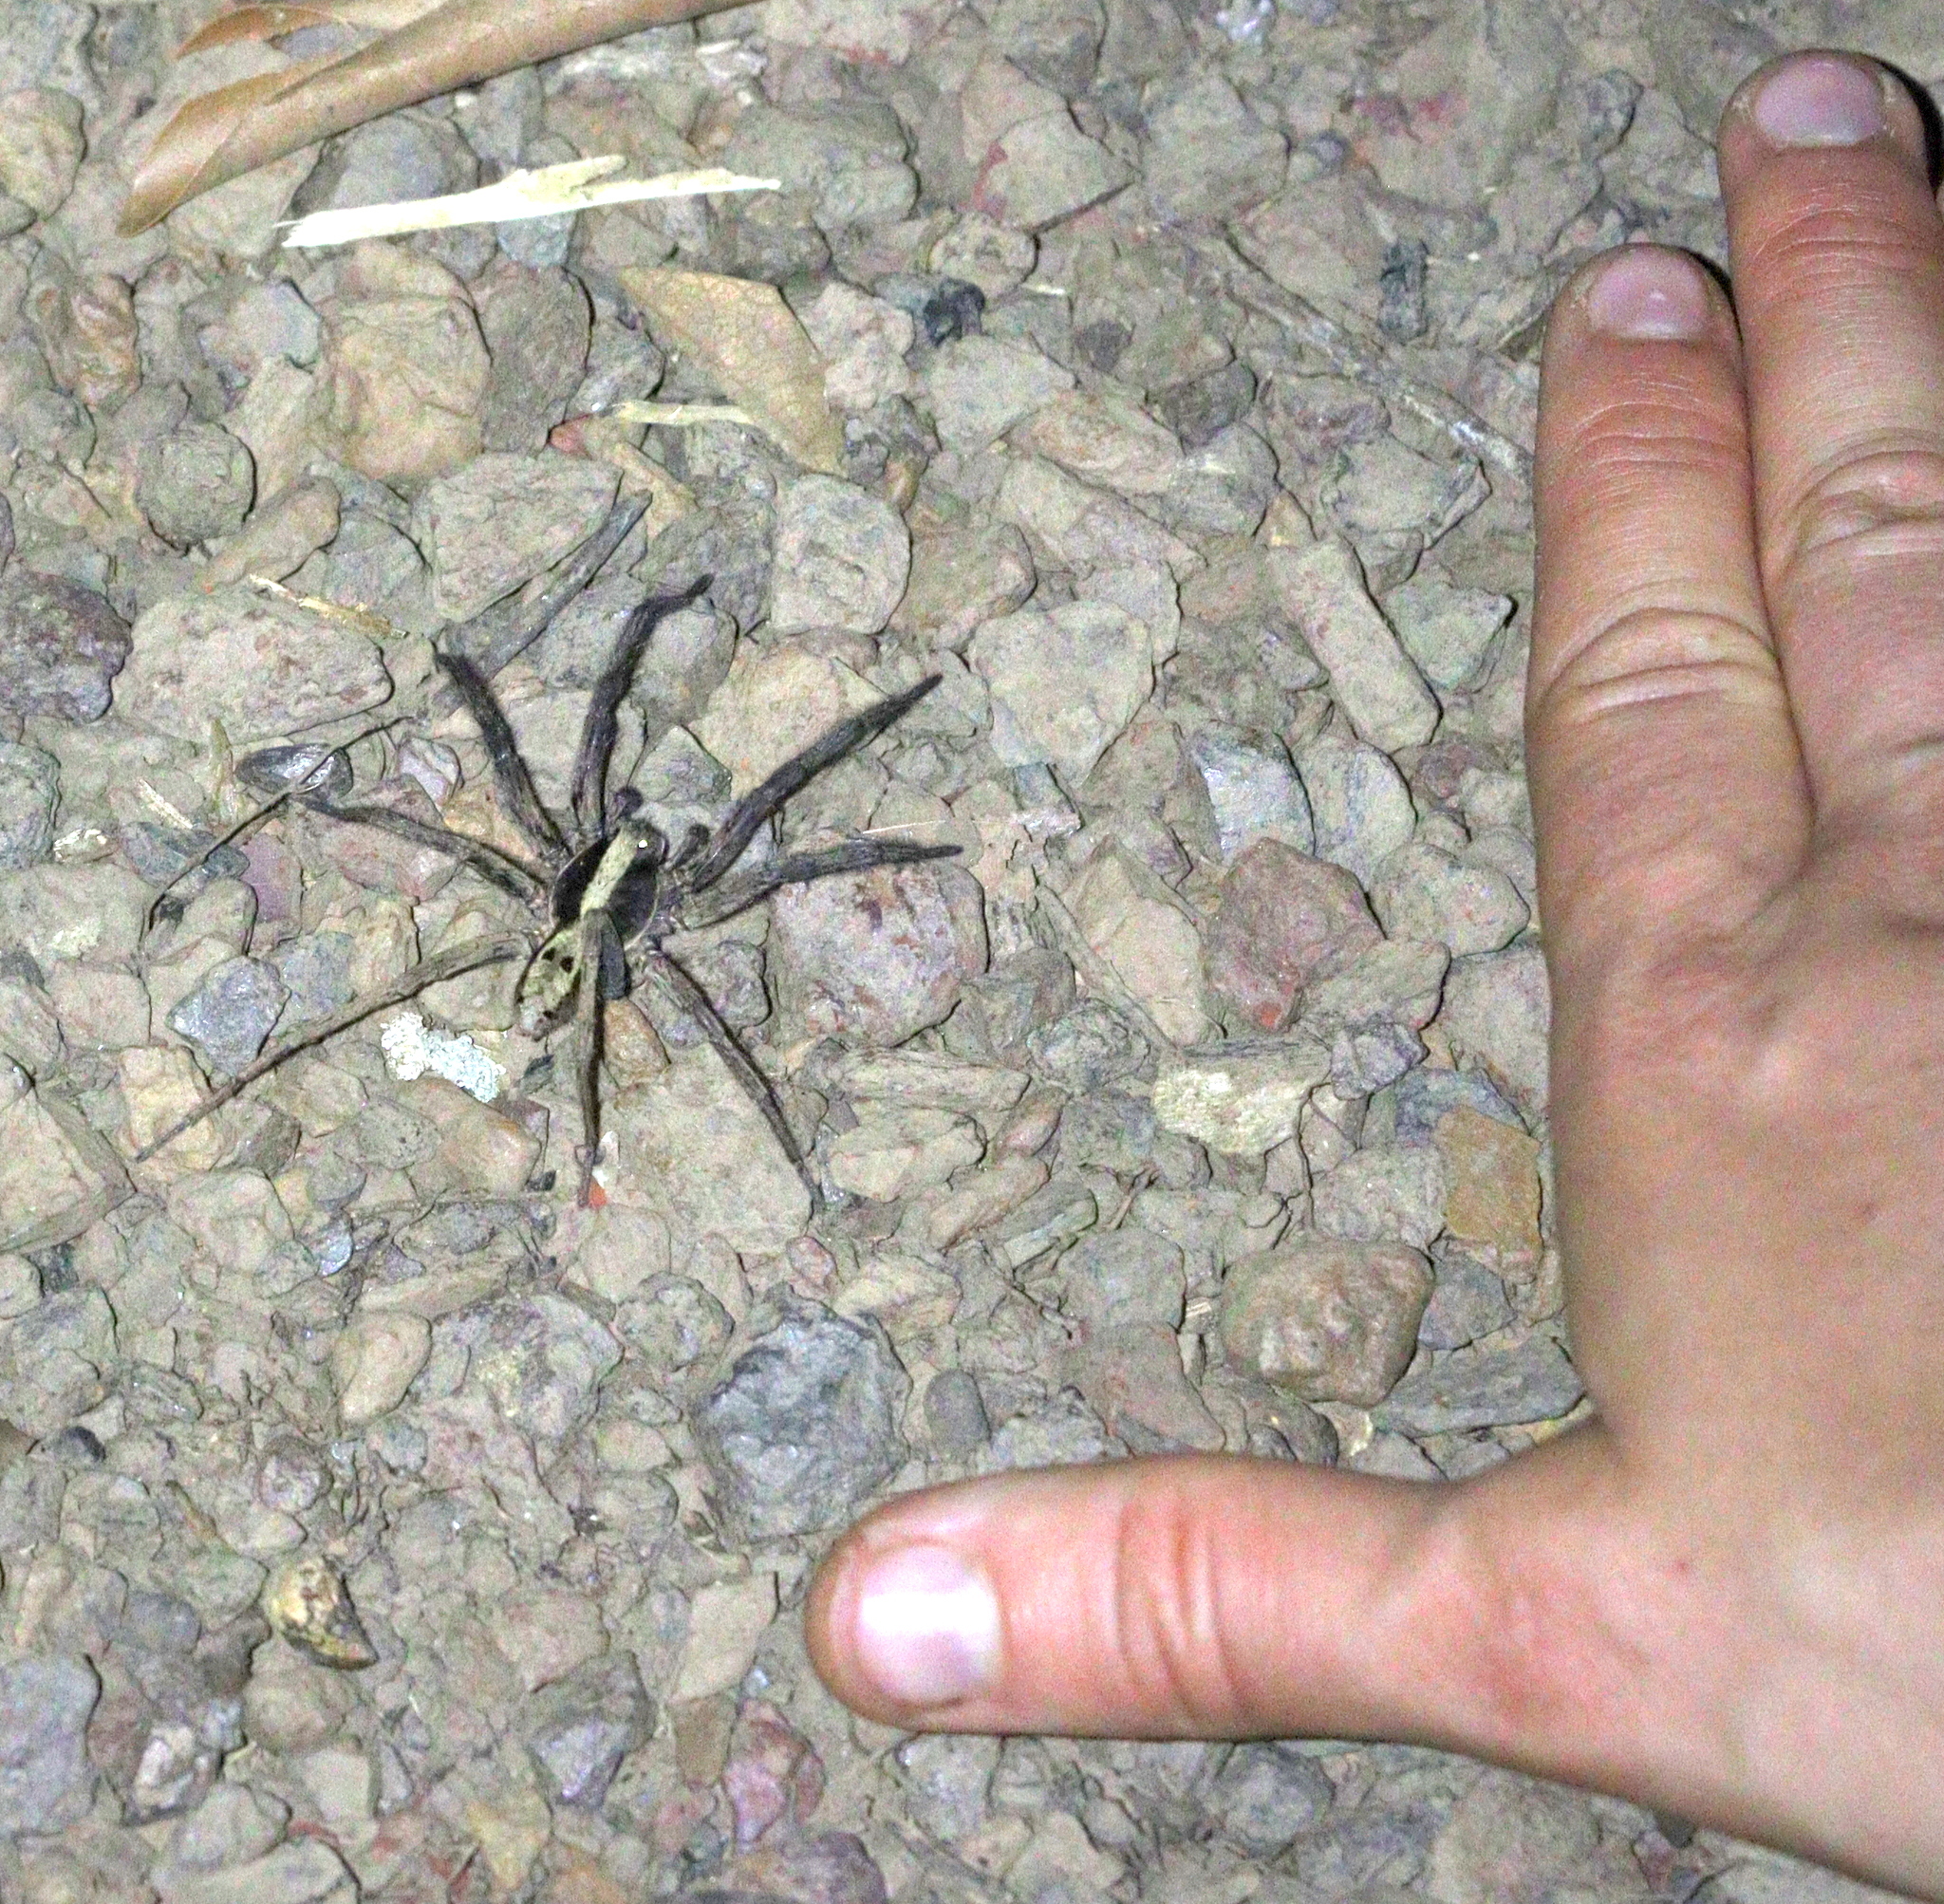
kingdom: Animalia
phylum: Arthropoda
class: Arachnida
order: Araneae
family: Lycosidae
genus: Hogna
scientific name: Hogna gumia
